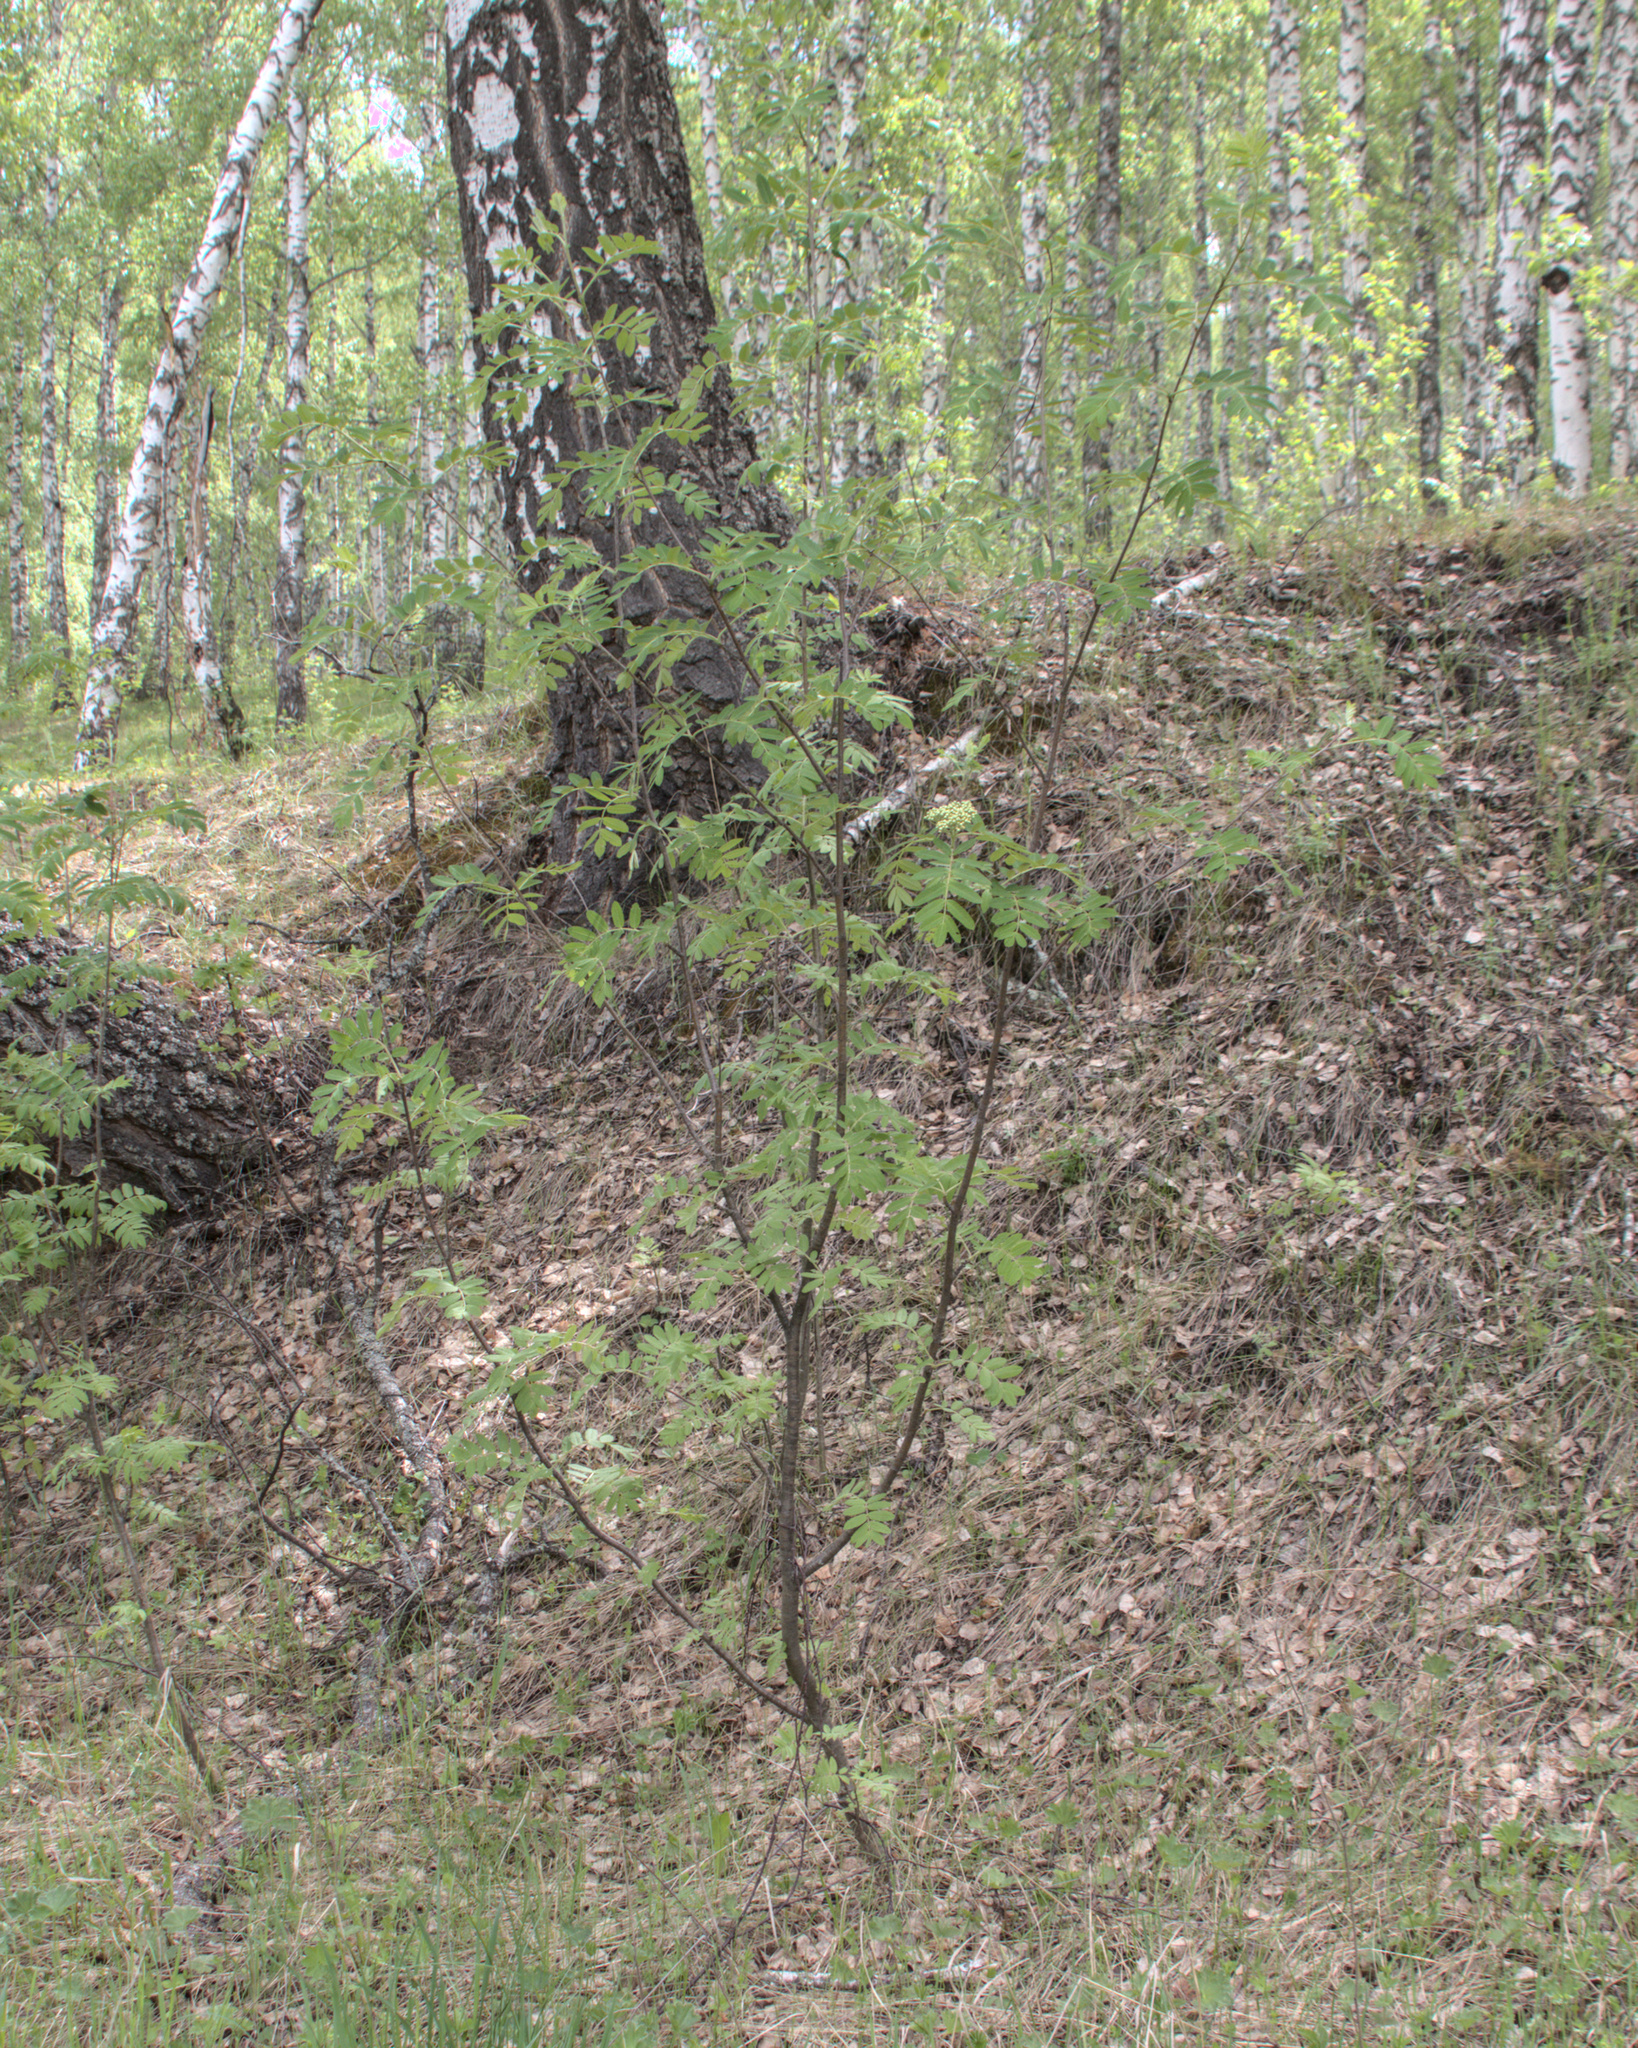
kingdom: Plantae
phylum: Tracheophyta
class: Magnoliopsida
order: Rosales
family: Rosaceae
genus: Sorbus
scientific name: Sorbus aucuparia
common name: Rowan
